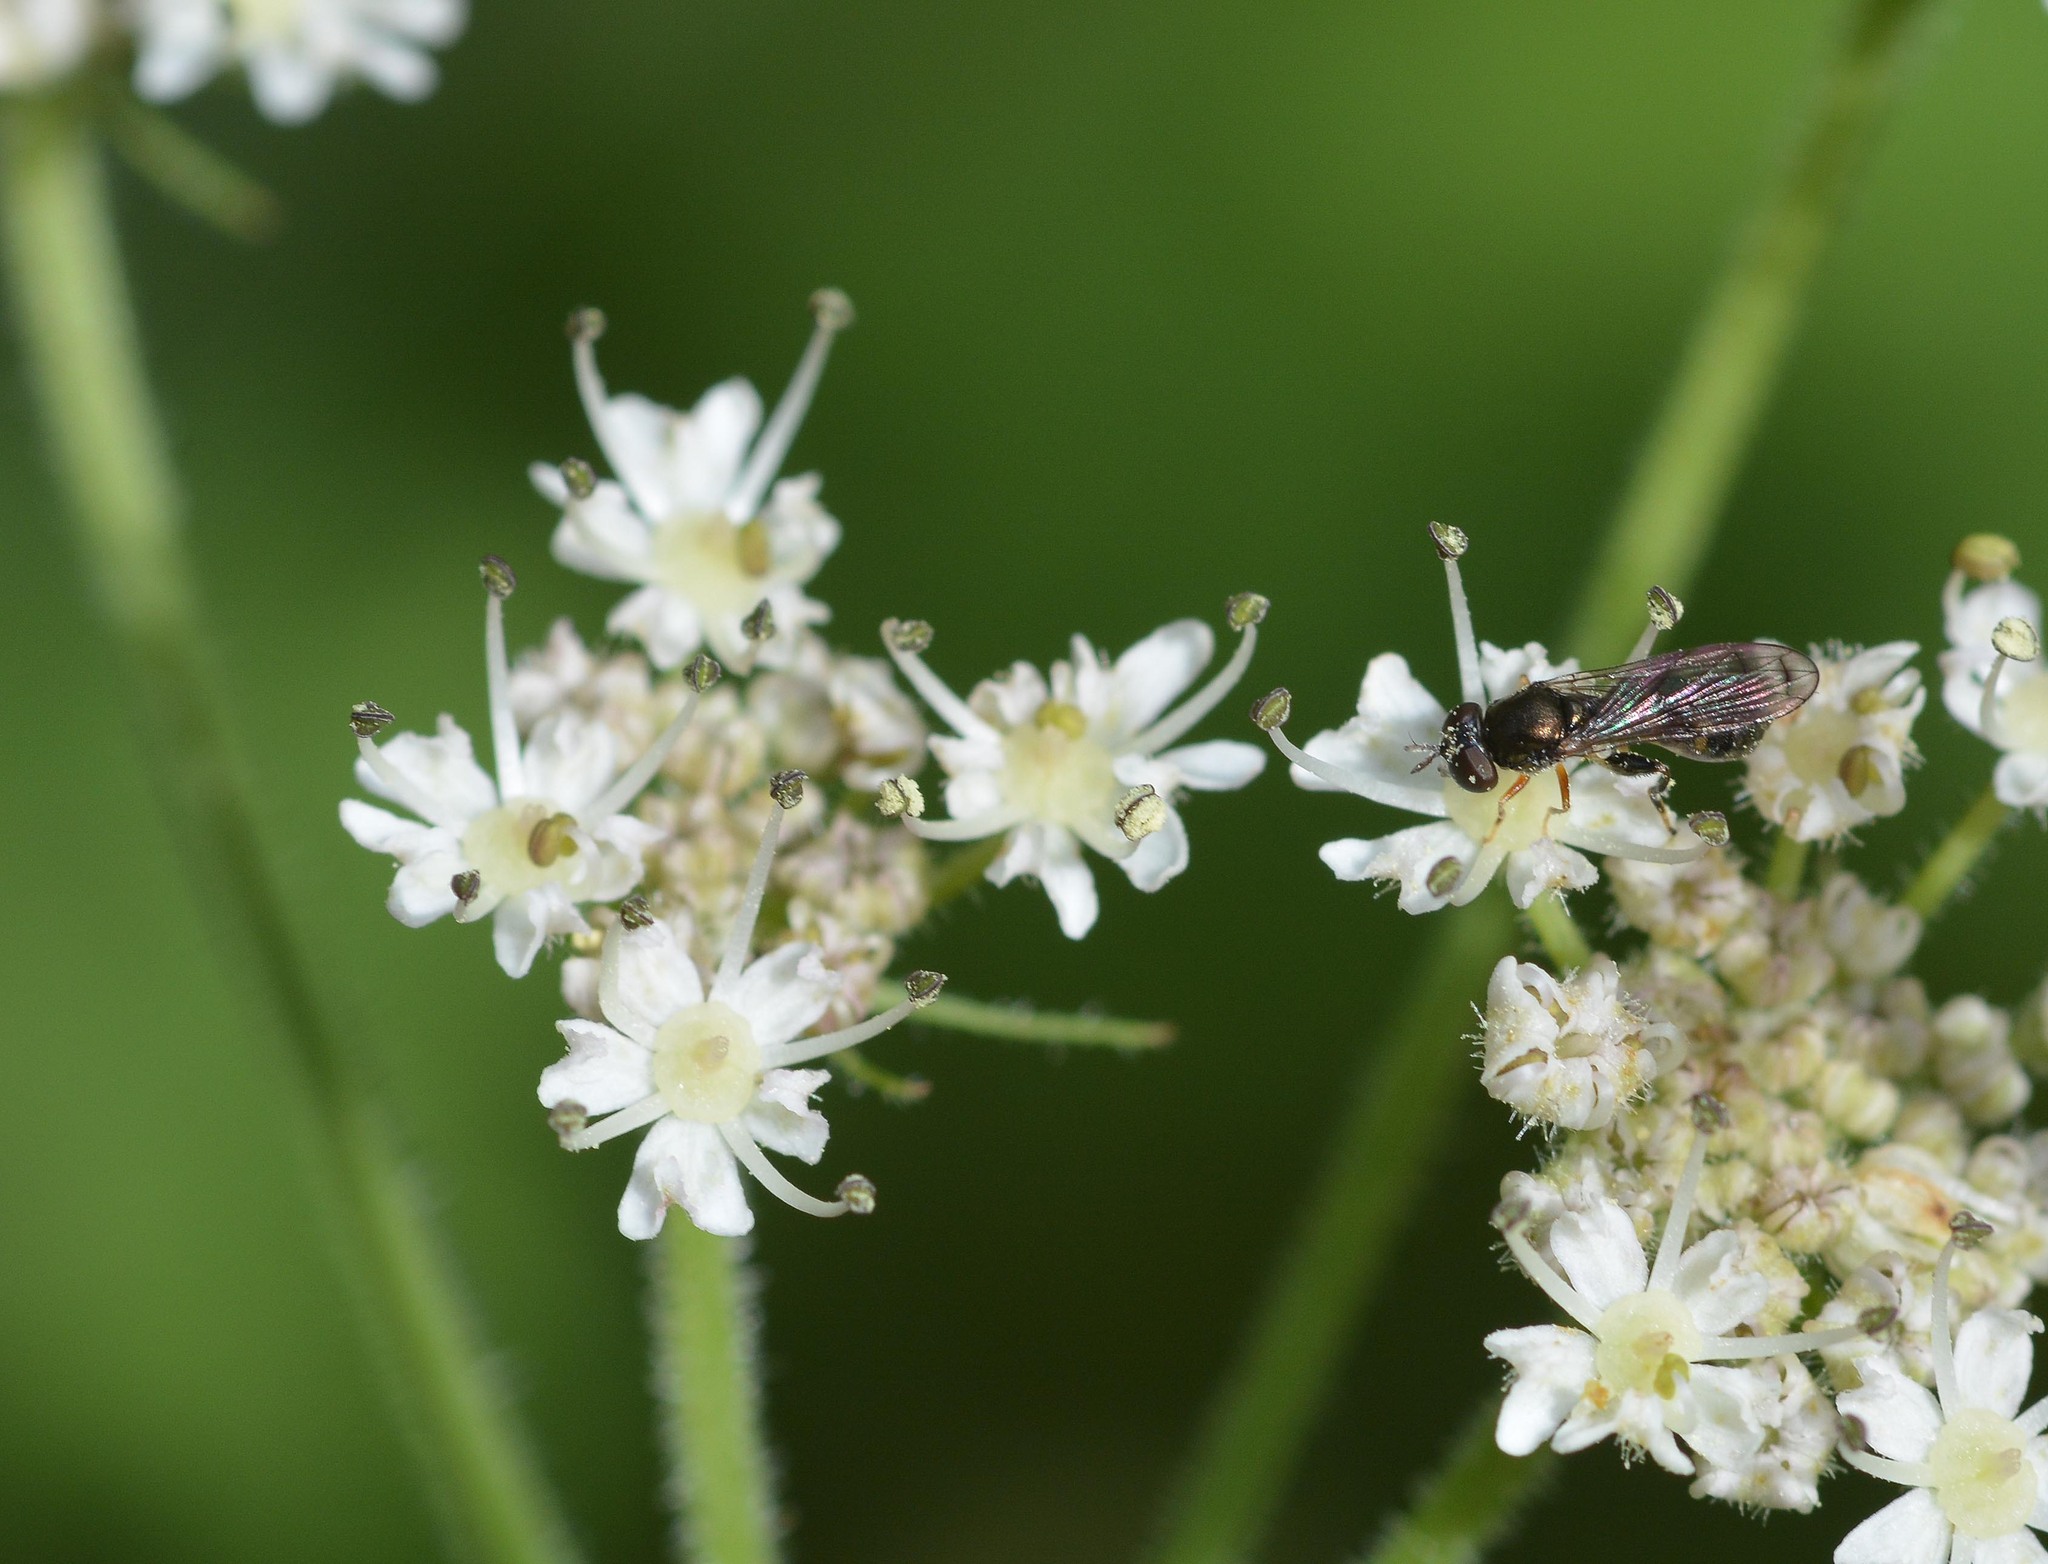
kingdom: Animalia
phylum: Arthropoda
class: Insecta
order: Diptera
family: Syrphidae
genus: Neoascia
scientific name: Neoascia
